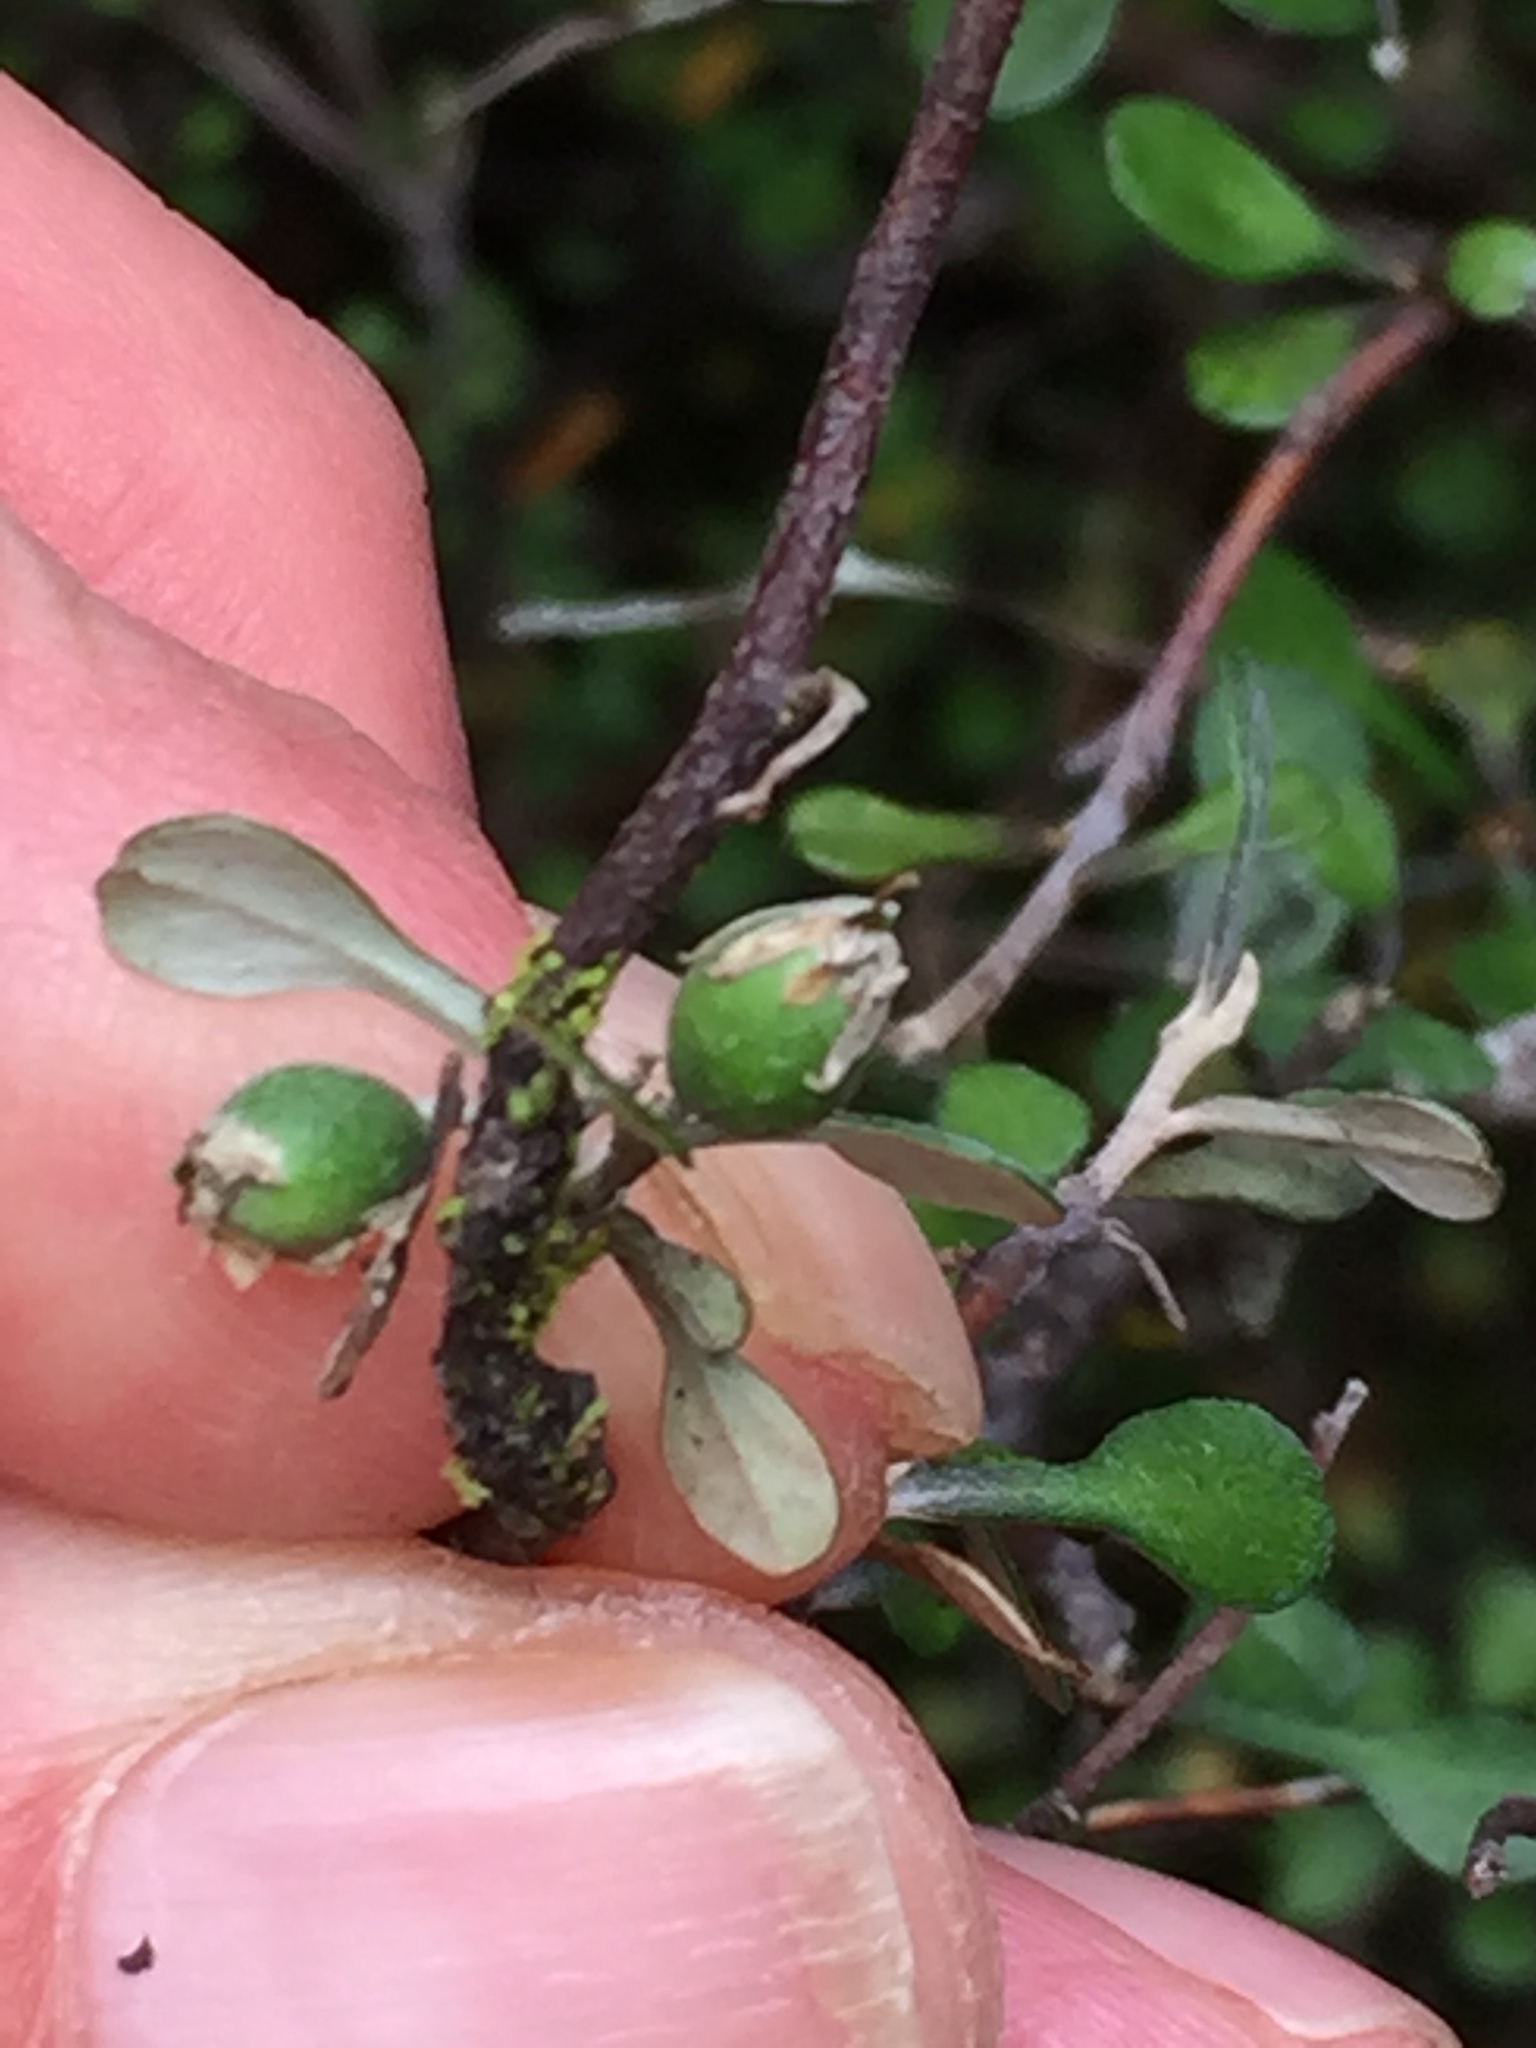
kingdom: Plantae
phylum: Tracheophyta
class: Magnoliopsida
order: Asterales
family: Argophyllaceae
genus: Corokia
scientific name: Corokia cotoneaster
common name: Wire nettingbush
